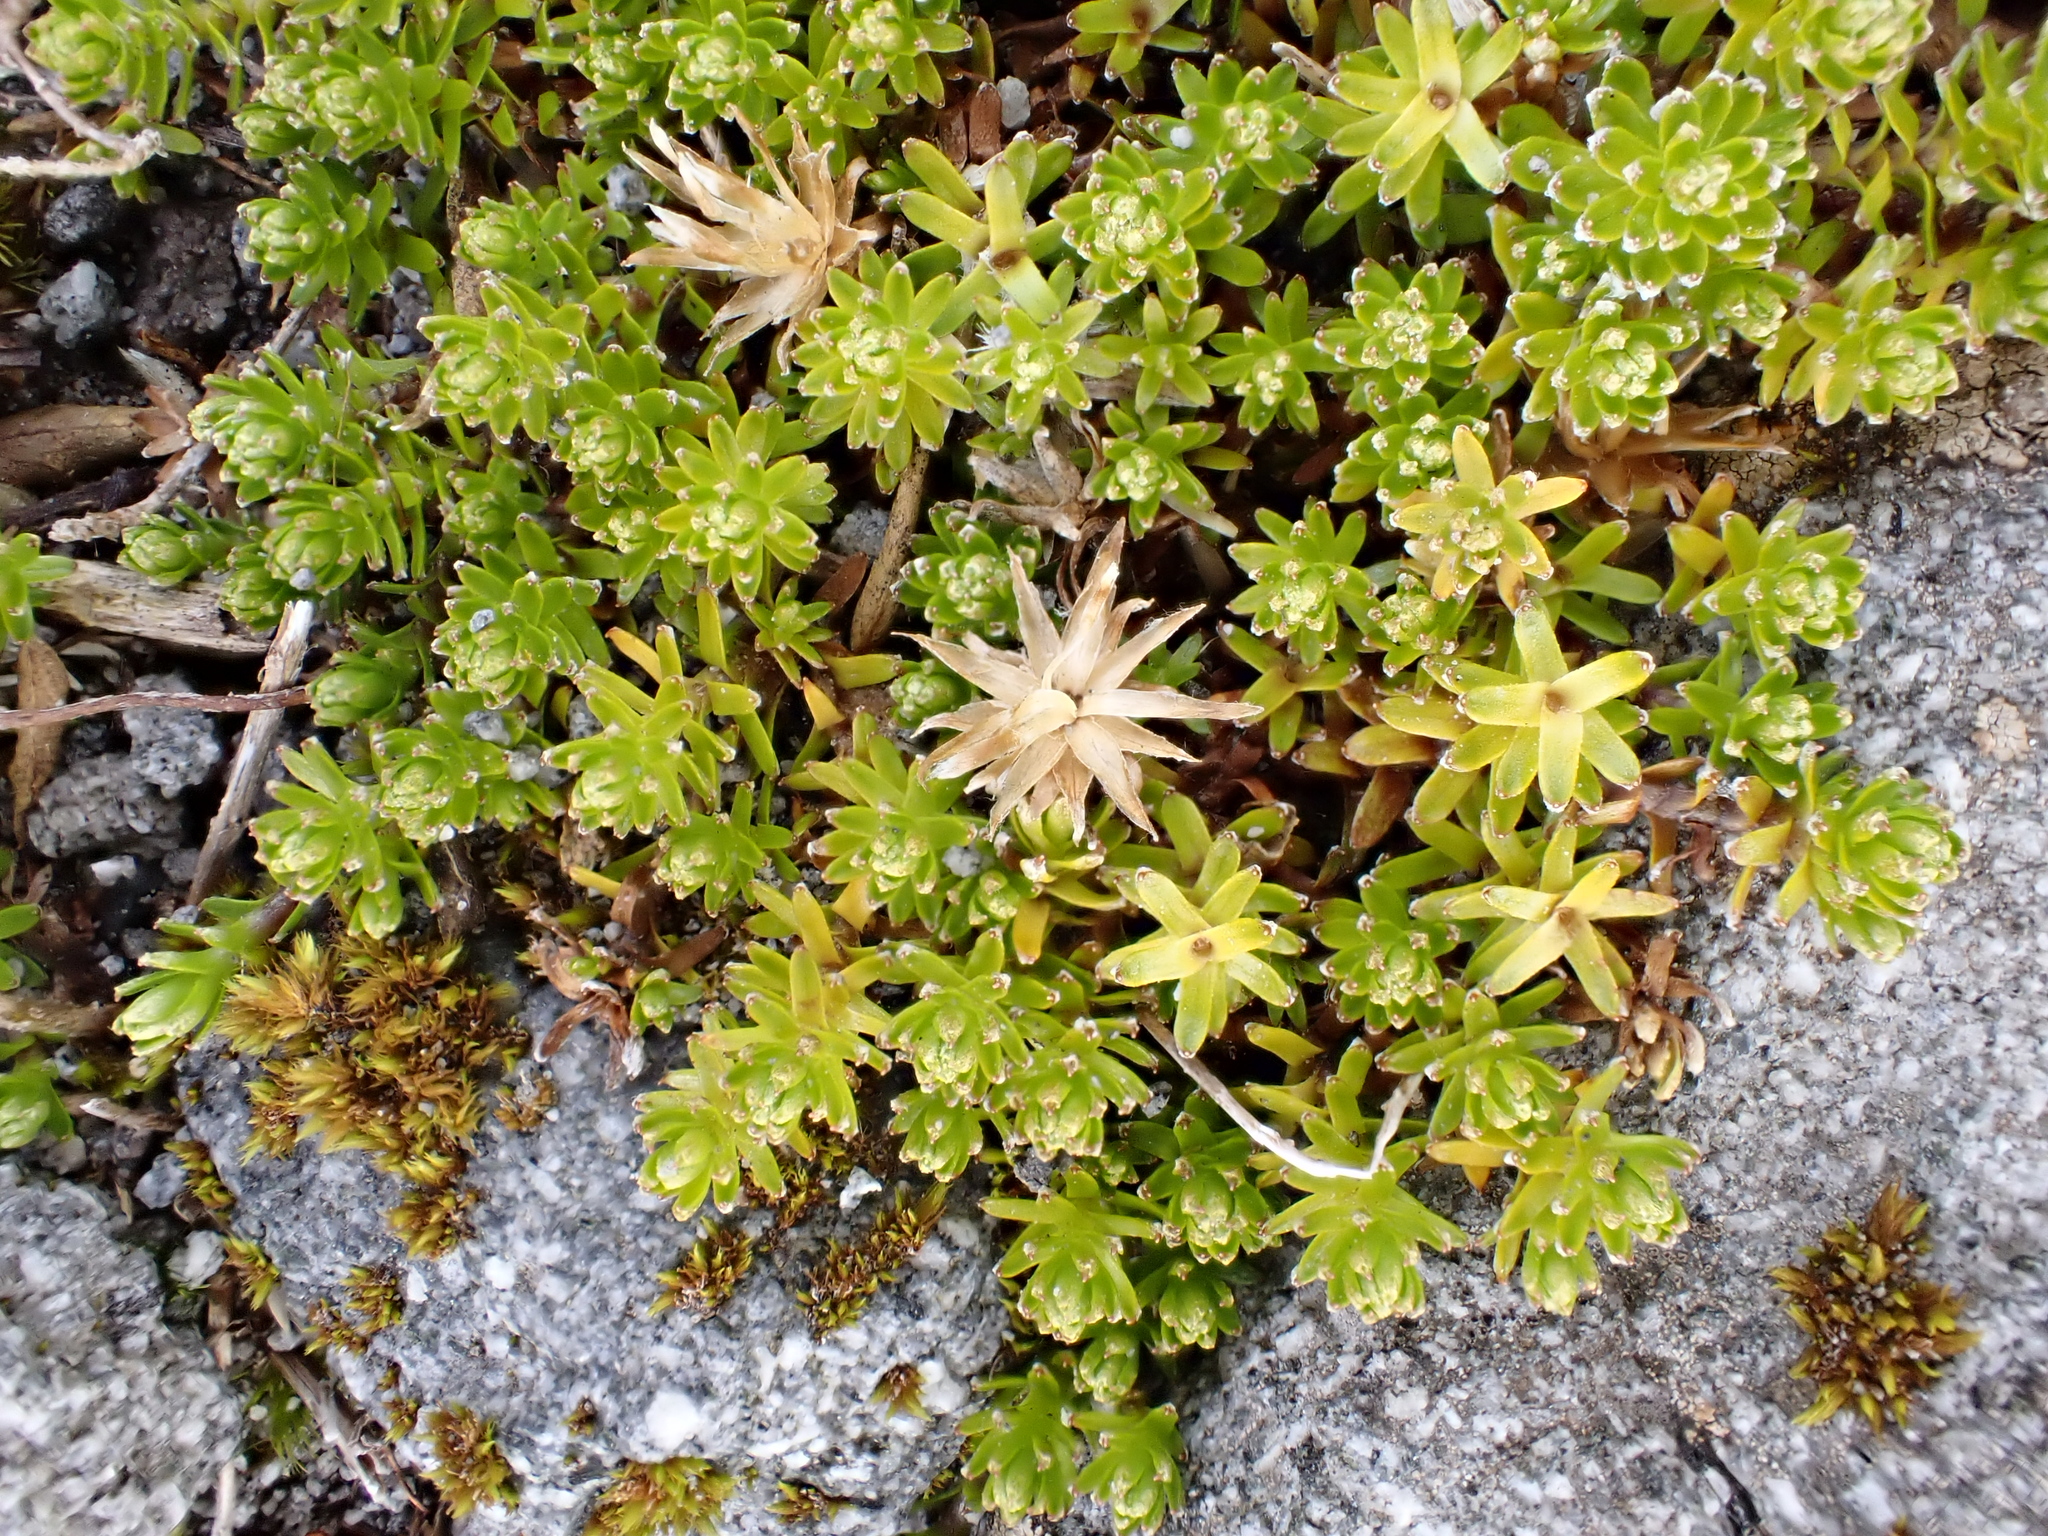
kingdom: Plantae
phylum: Tracheophyta
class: Magnoliopsida
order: Asterales
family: Asteraceae
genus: Raoulia
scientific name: Raoulia glabra
